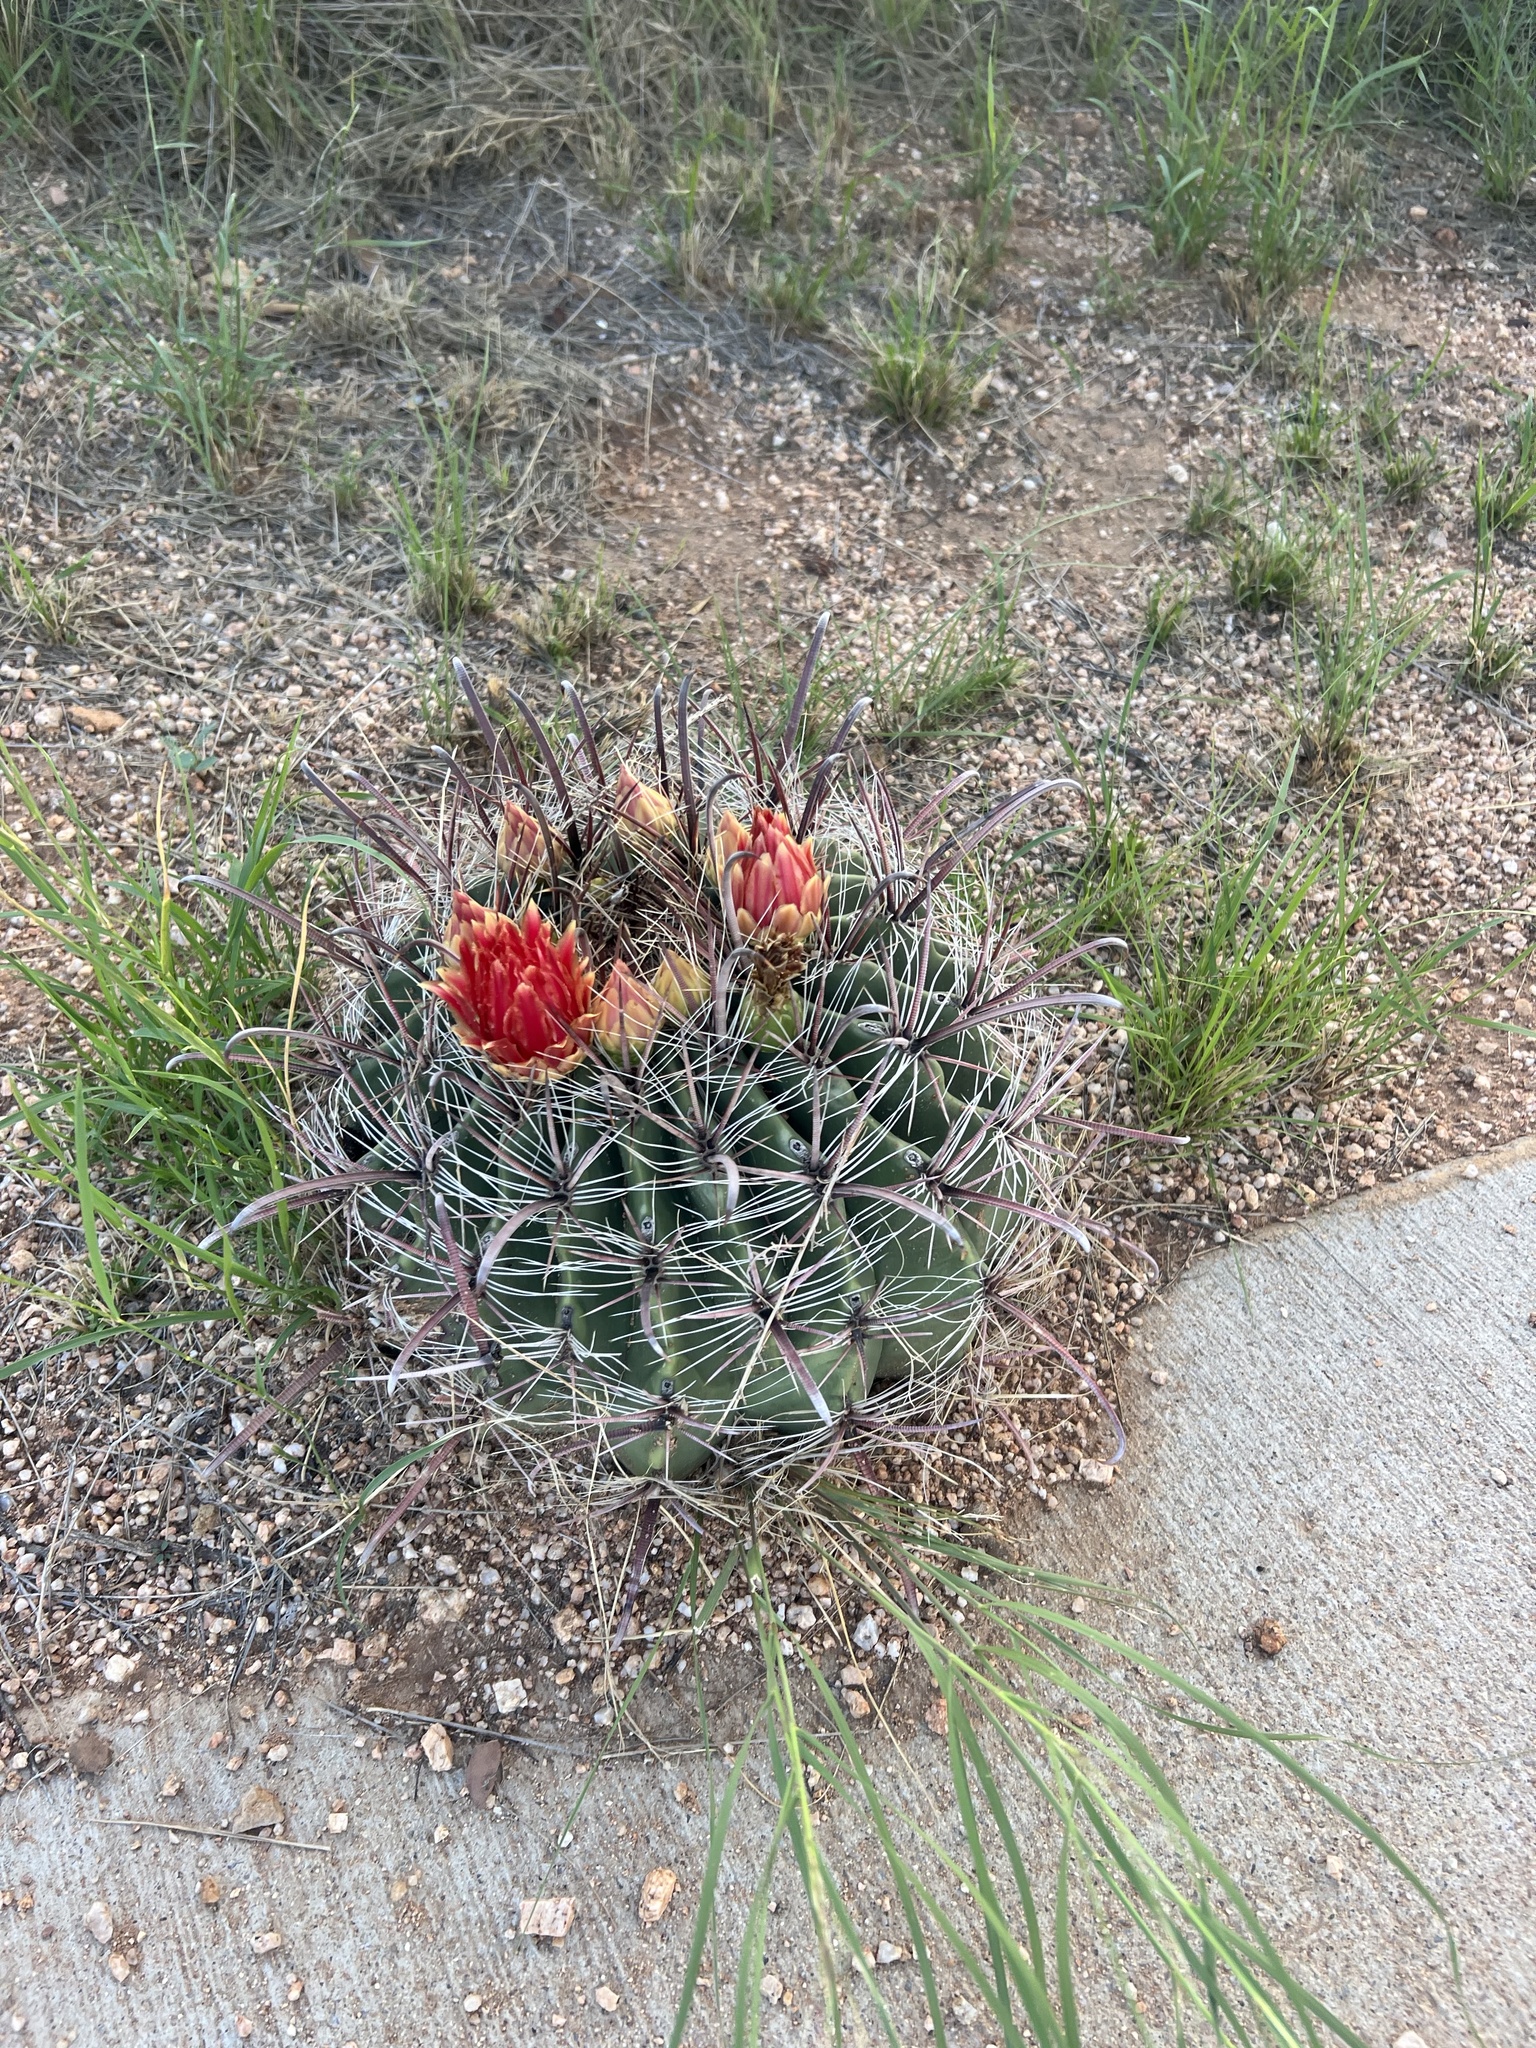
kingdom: Plantae
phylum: Tracheophyta
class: Magnoliopsida
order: Caryophyllales
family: Cactaceae
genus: Ferocactus
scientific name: Ferocactus wislizeni
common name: Candy barrel cactus
